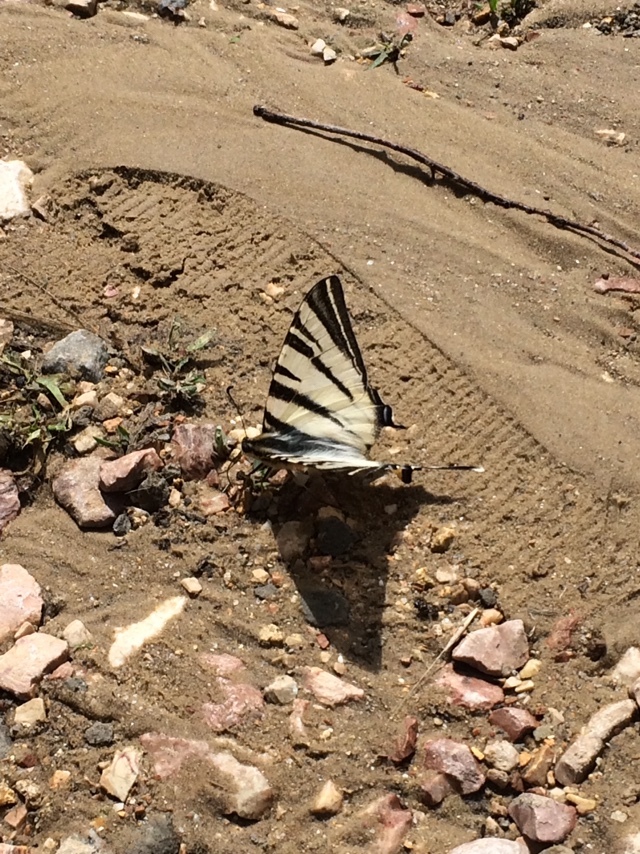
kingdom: Animalia
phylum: Arthropoda
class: Insecta
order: Lepidoptera
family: Papilionidae
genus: Iphiclides
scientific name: Iphiclides podalirius
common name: Scarce swallowtail
